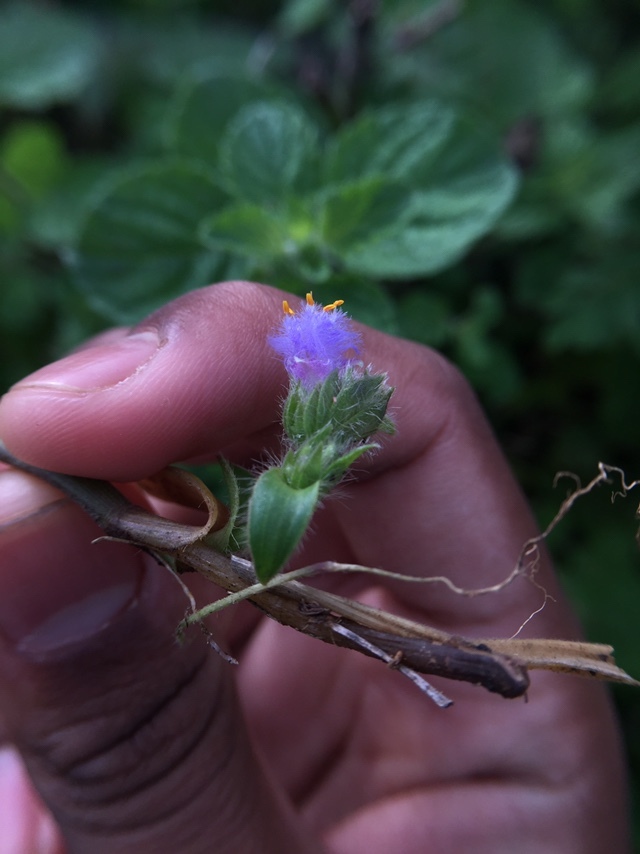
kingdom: Plantae
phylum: Tracheophyta
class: Liliopsida
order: Commelinales
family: Commelinaceae
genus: Cyanotis
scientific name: Cyanotis adscendens
